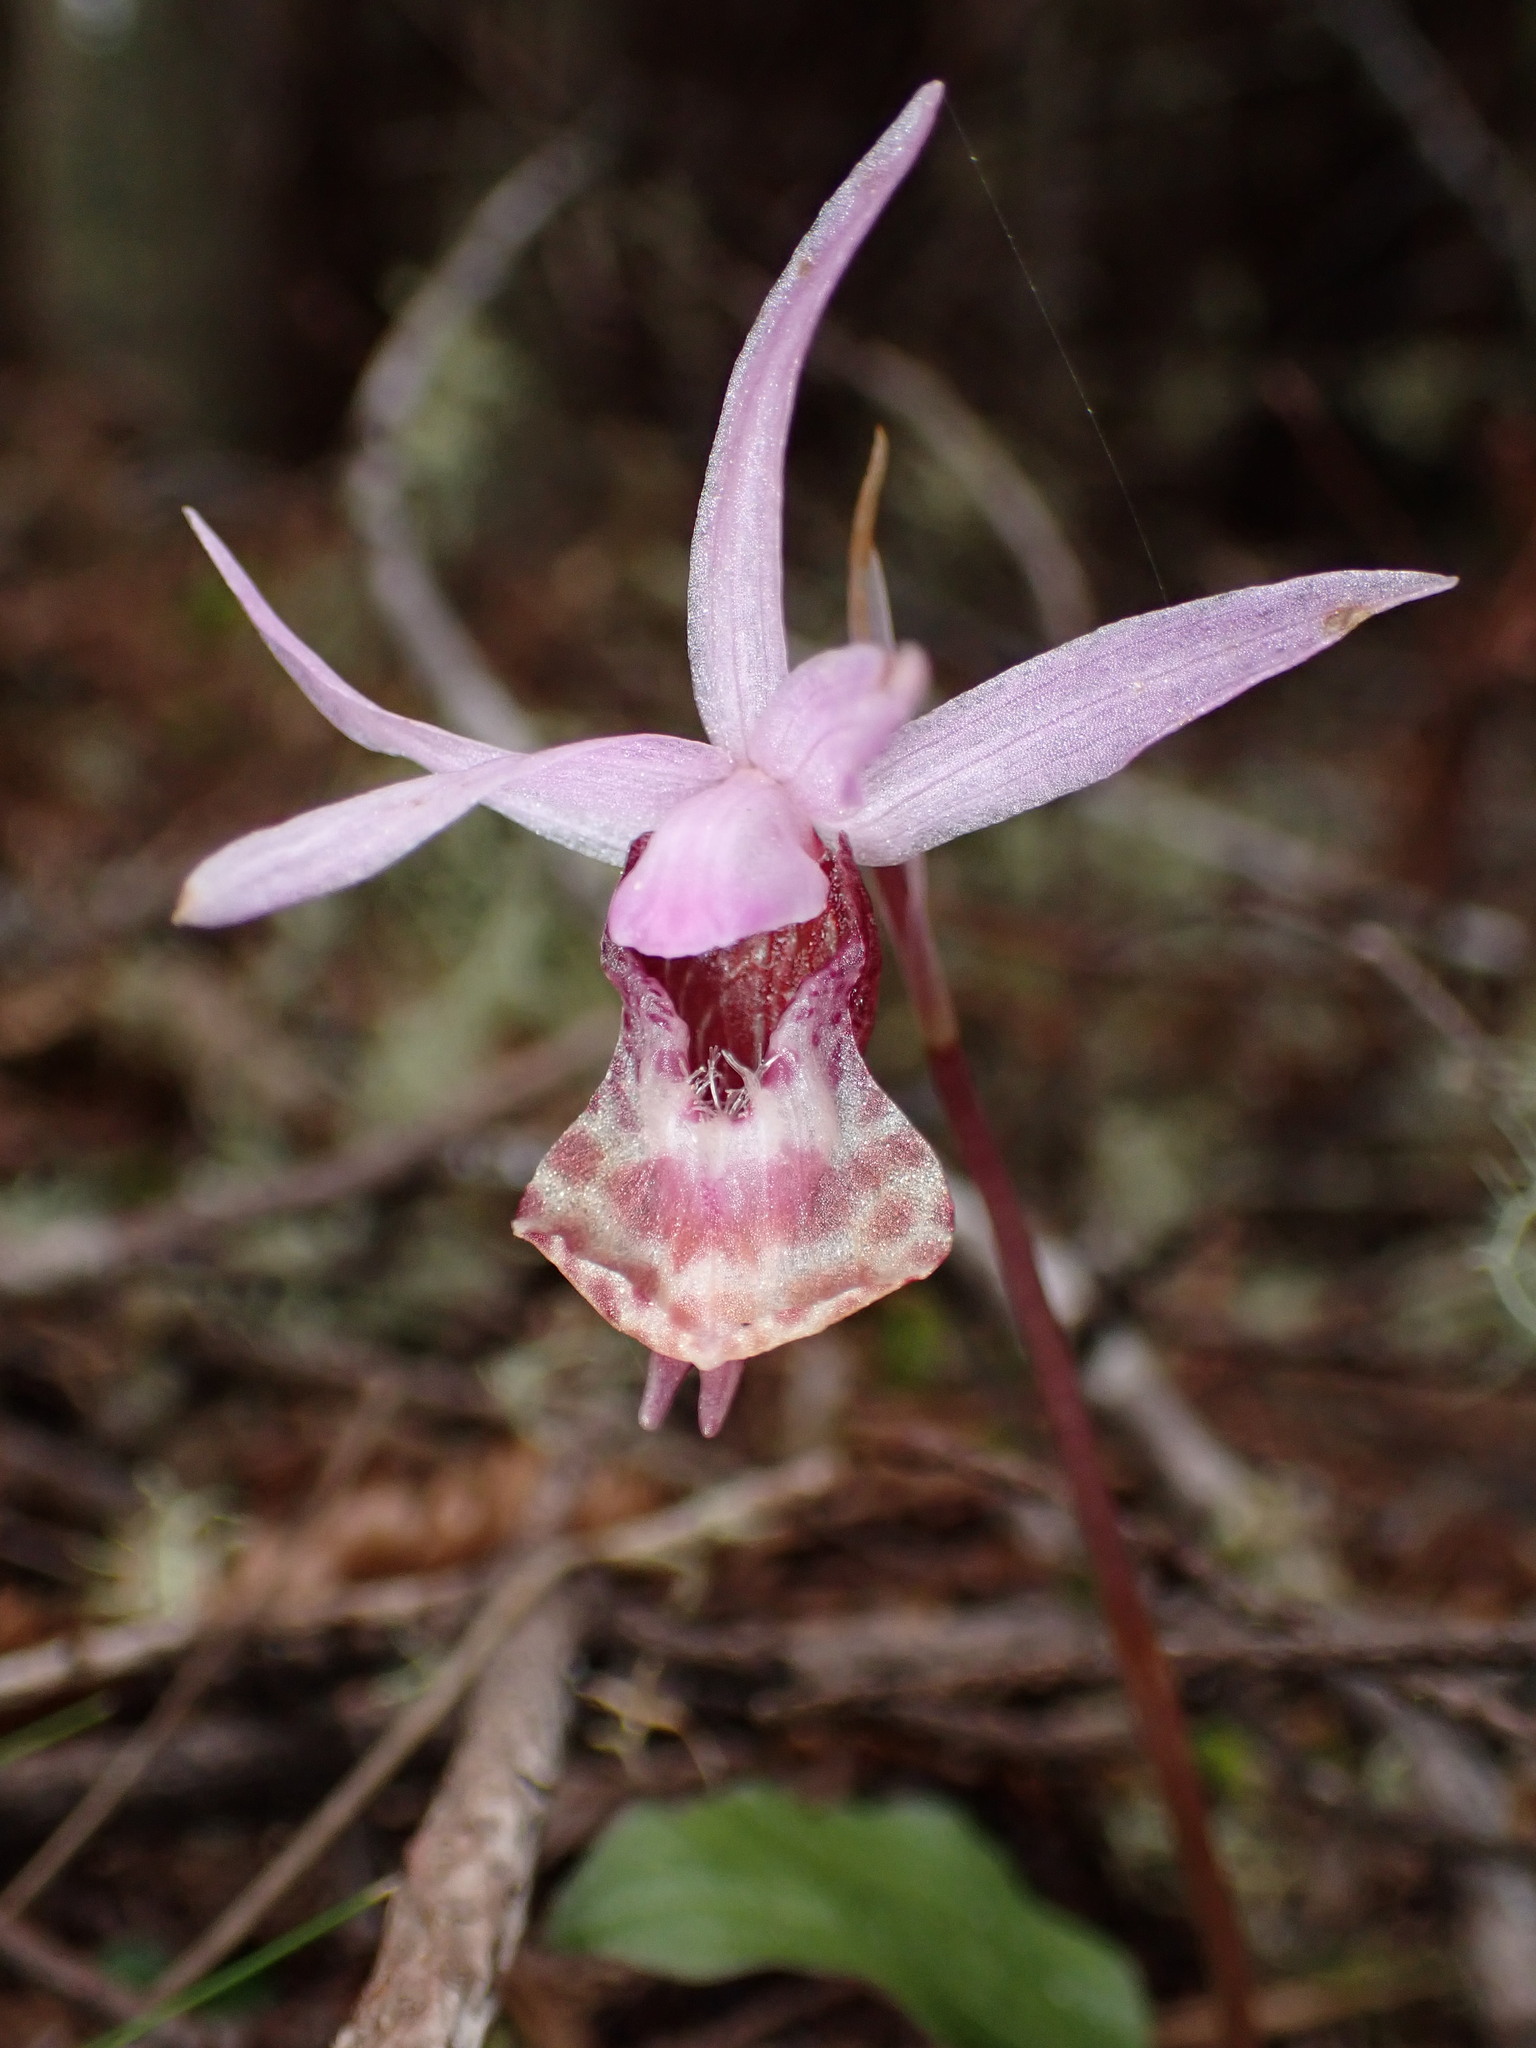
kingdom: Plantae
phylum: Tracheophyta
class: Liliopsida
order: Asparagales
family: Orchidaceae
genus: Calypso
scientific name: Calypso bulbosa
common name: Calypso
